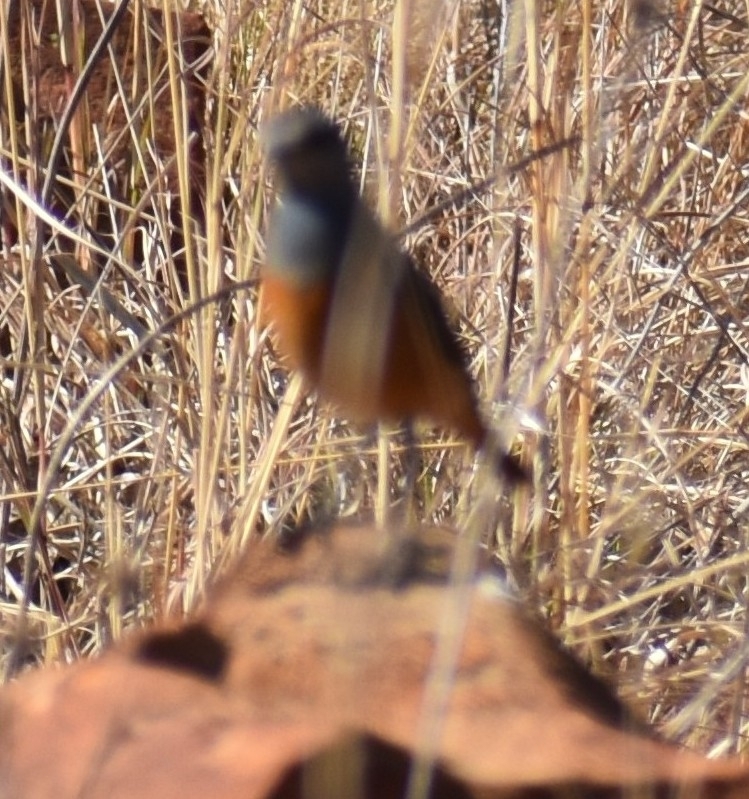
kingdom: Animalia
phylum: Chordata
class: Aves
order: Passeriformes
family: Muscicapidae
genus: Monticola
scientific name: Monticola explorator
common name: Sentinel rock thrush
